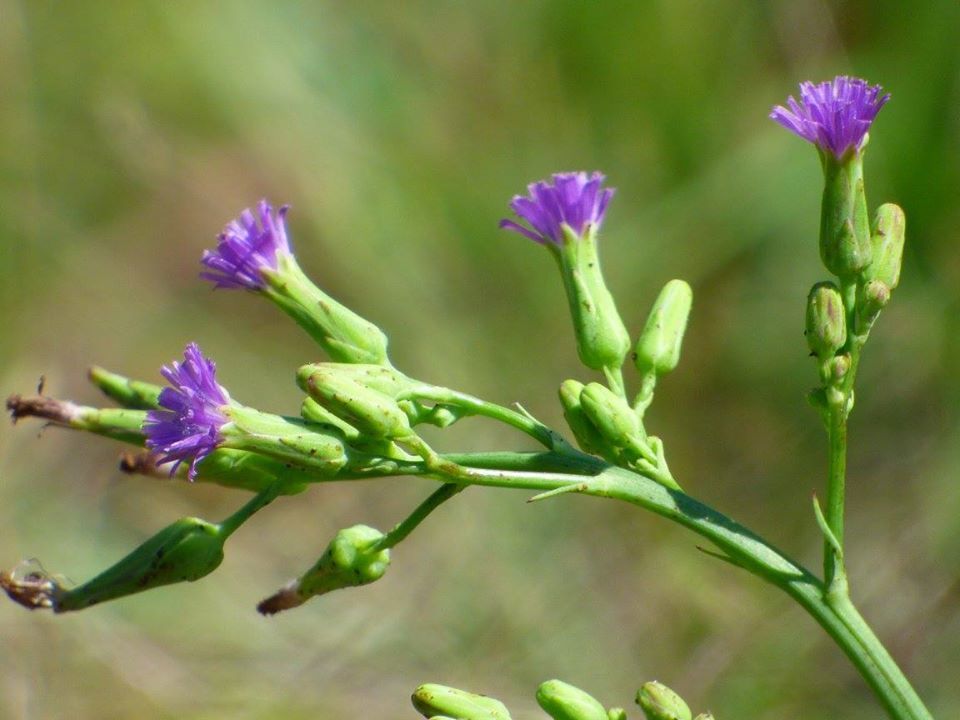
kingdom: Plantae
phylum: Tracheophyta
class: Magnoliopsida
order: Asterales
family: Asteraceae
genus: Lactuca
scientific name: Lactuca graminifolia
